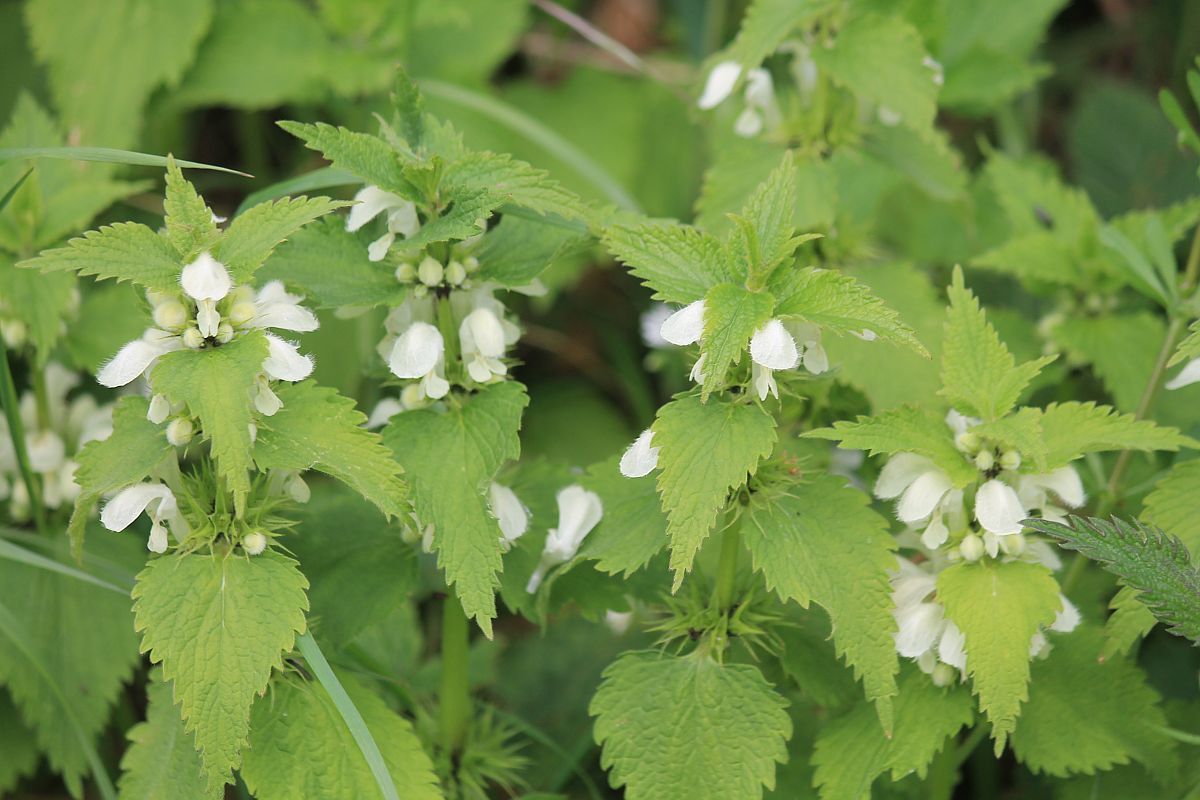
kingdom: Plantae
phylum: Tracheophyta
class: Magnoliopsida
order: Lamiales
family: Lamiaceae
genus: Lamium
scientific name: Lamium album
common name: White dead-nettle
